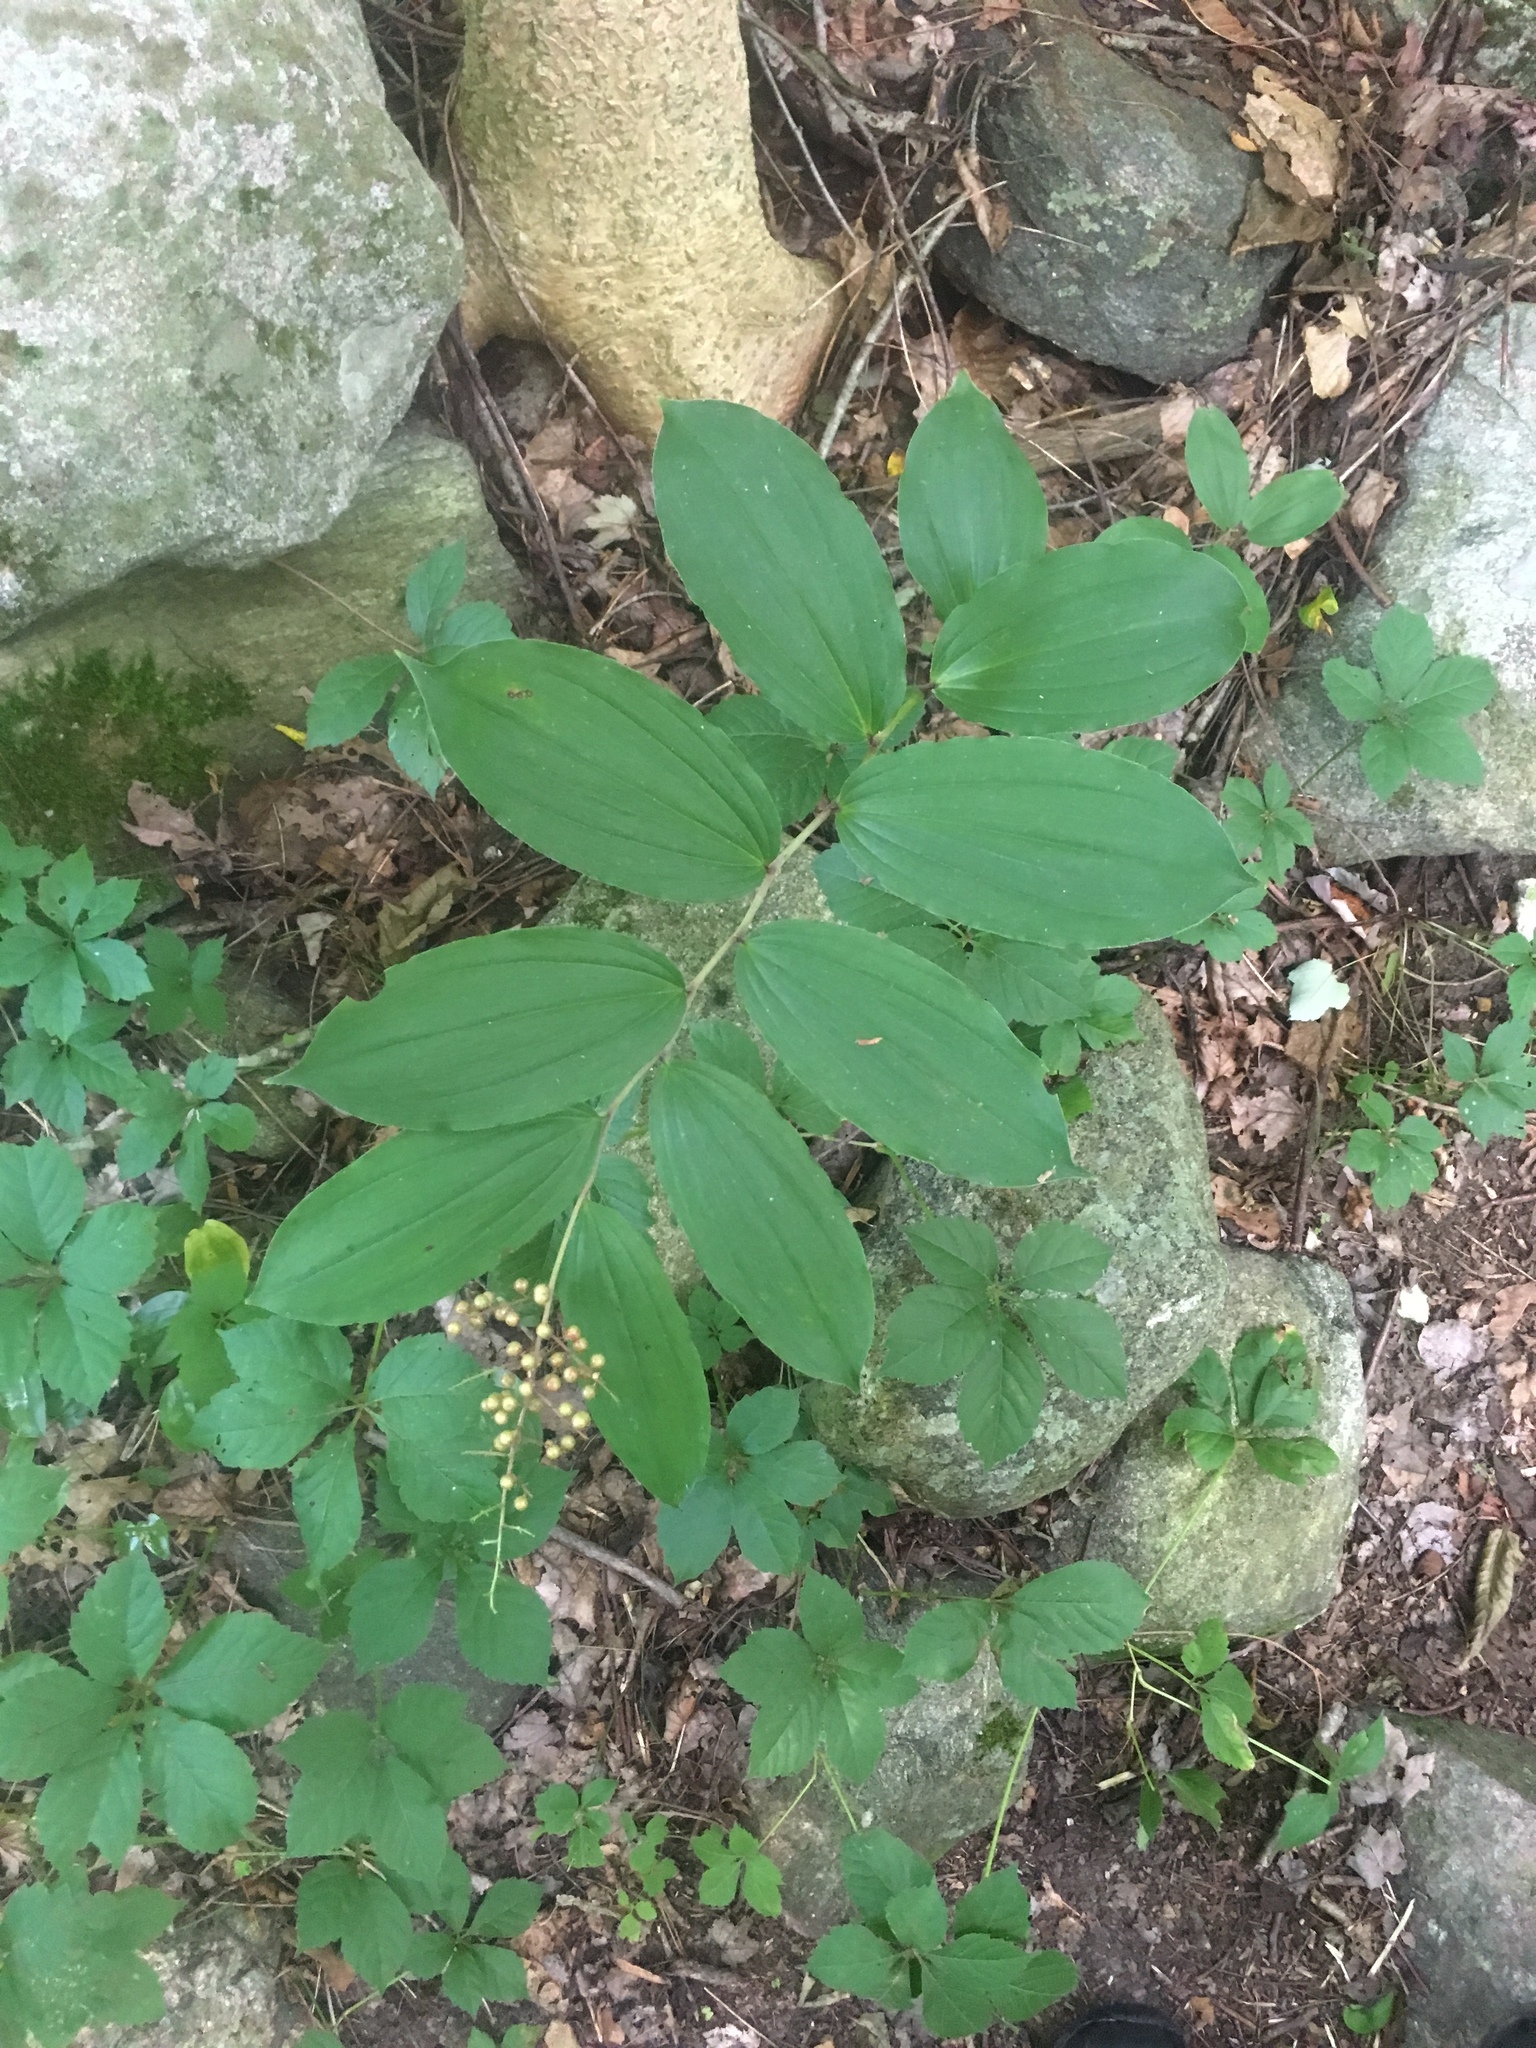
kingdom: Plantae
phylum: Tracheophyta
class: Liliopsida
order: Asparagales
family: Asparagaceae
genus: Maianthemum
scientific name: Maianthemum racemosum
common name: False spikenard
